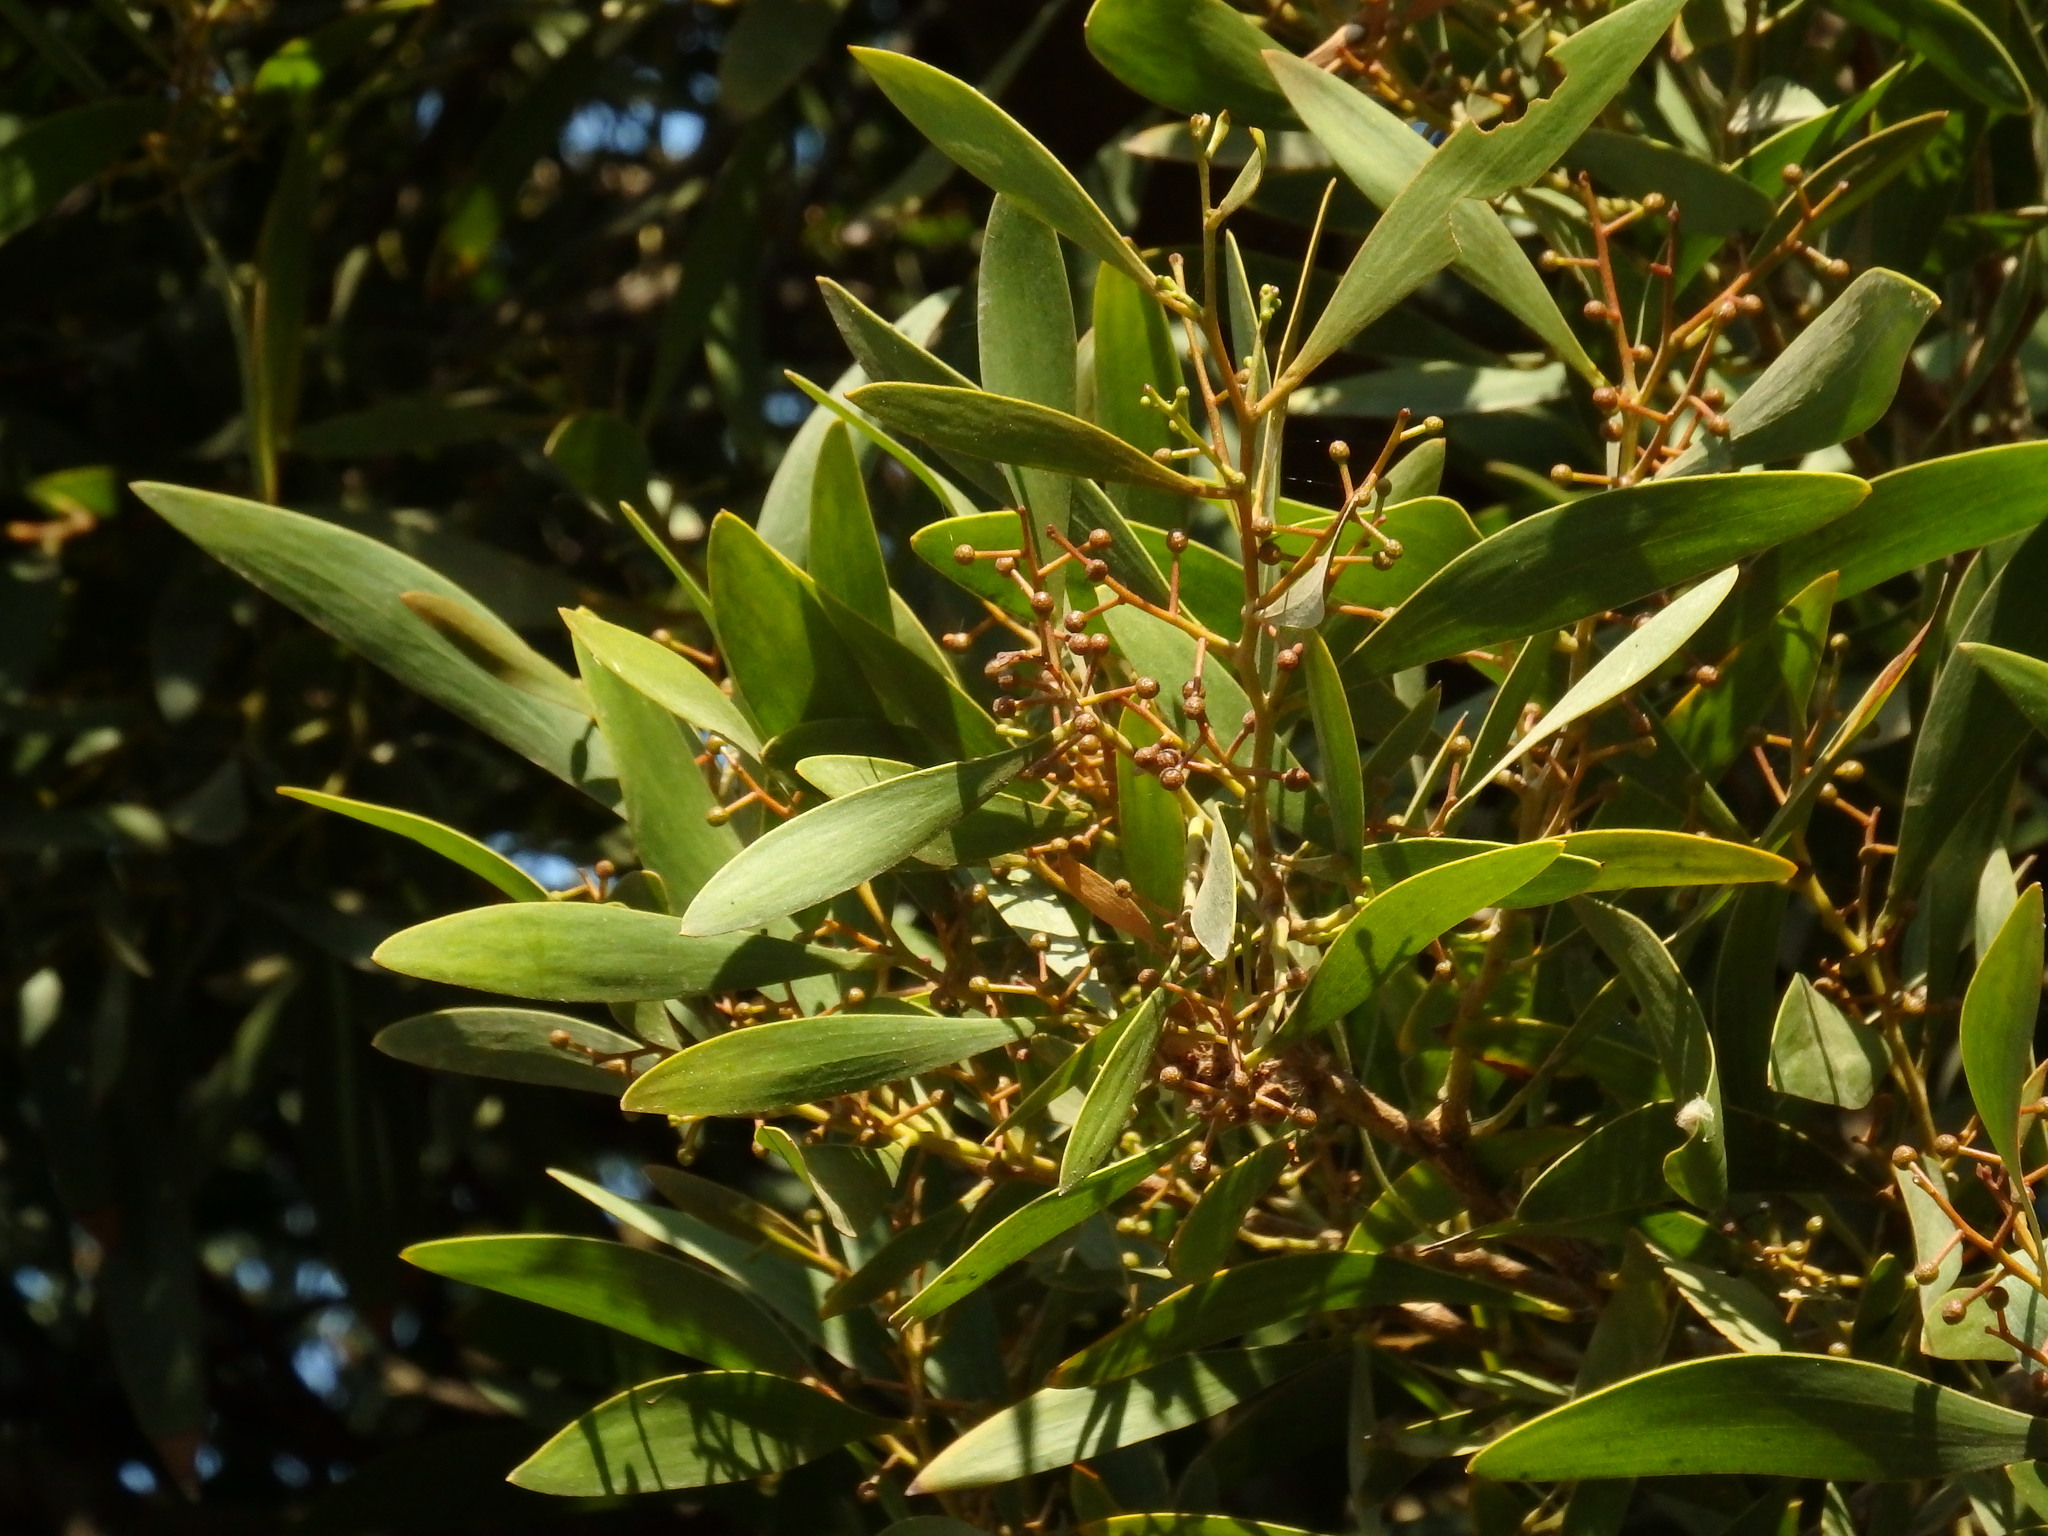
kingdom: Plantae
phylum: Tracheophyta
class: Magnoliopsida
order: Fabales
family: Fabaceae
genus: Acacia
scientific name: Acacia melanoxylon
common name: Blackwood
